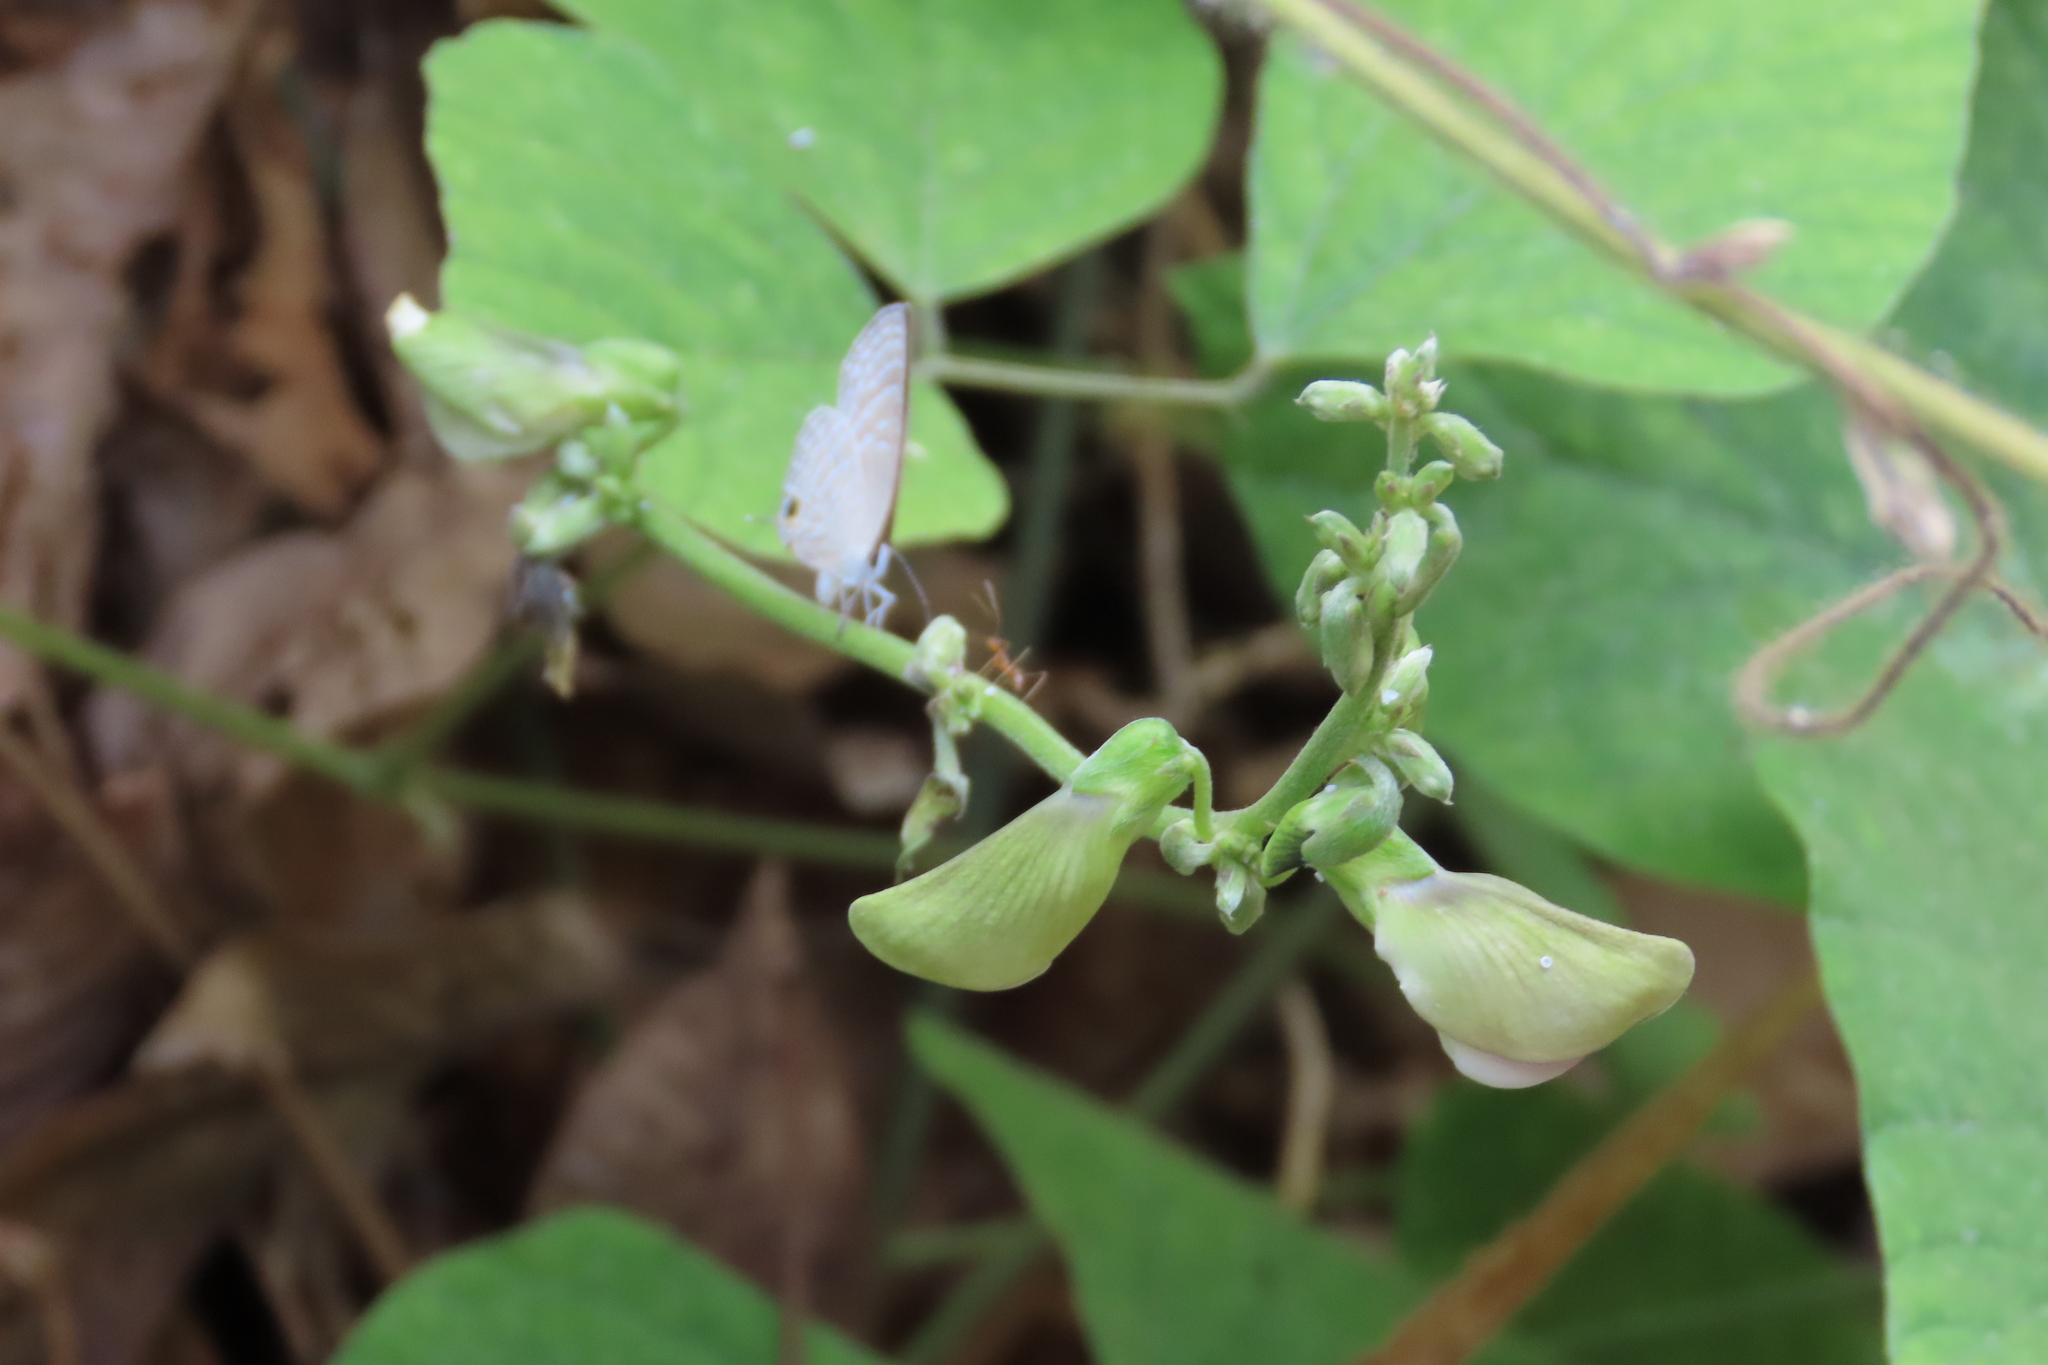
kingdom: Animalia
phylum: Arthropoda
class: Insecta
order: Lepidoptera
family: Lycaenidae
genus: Jamides
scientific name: Jamides celeno
